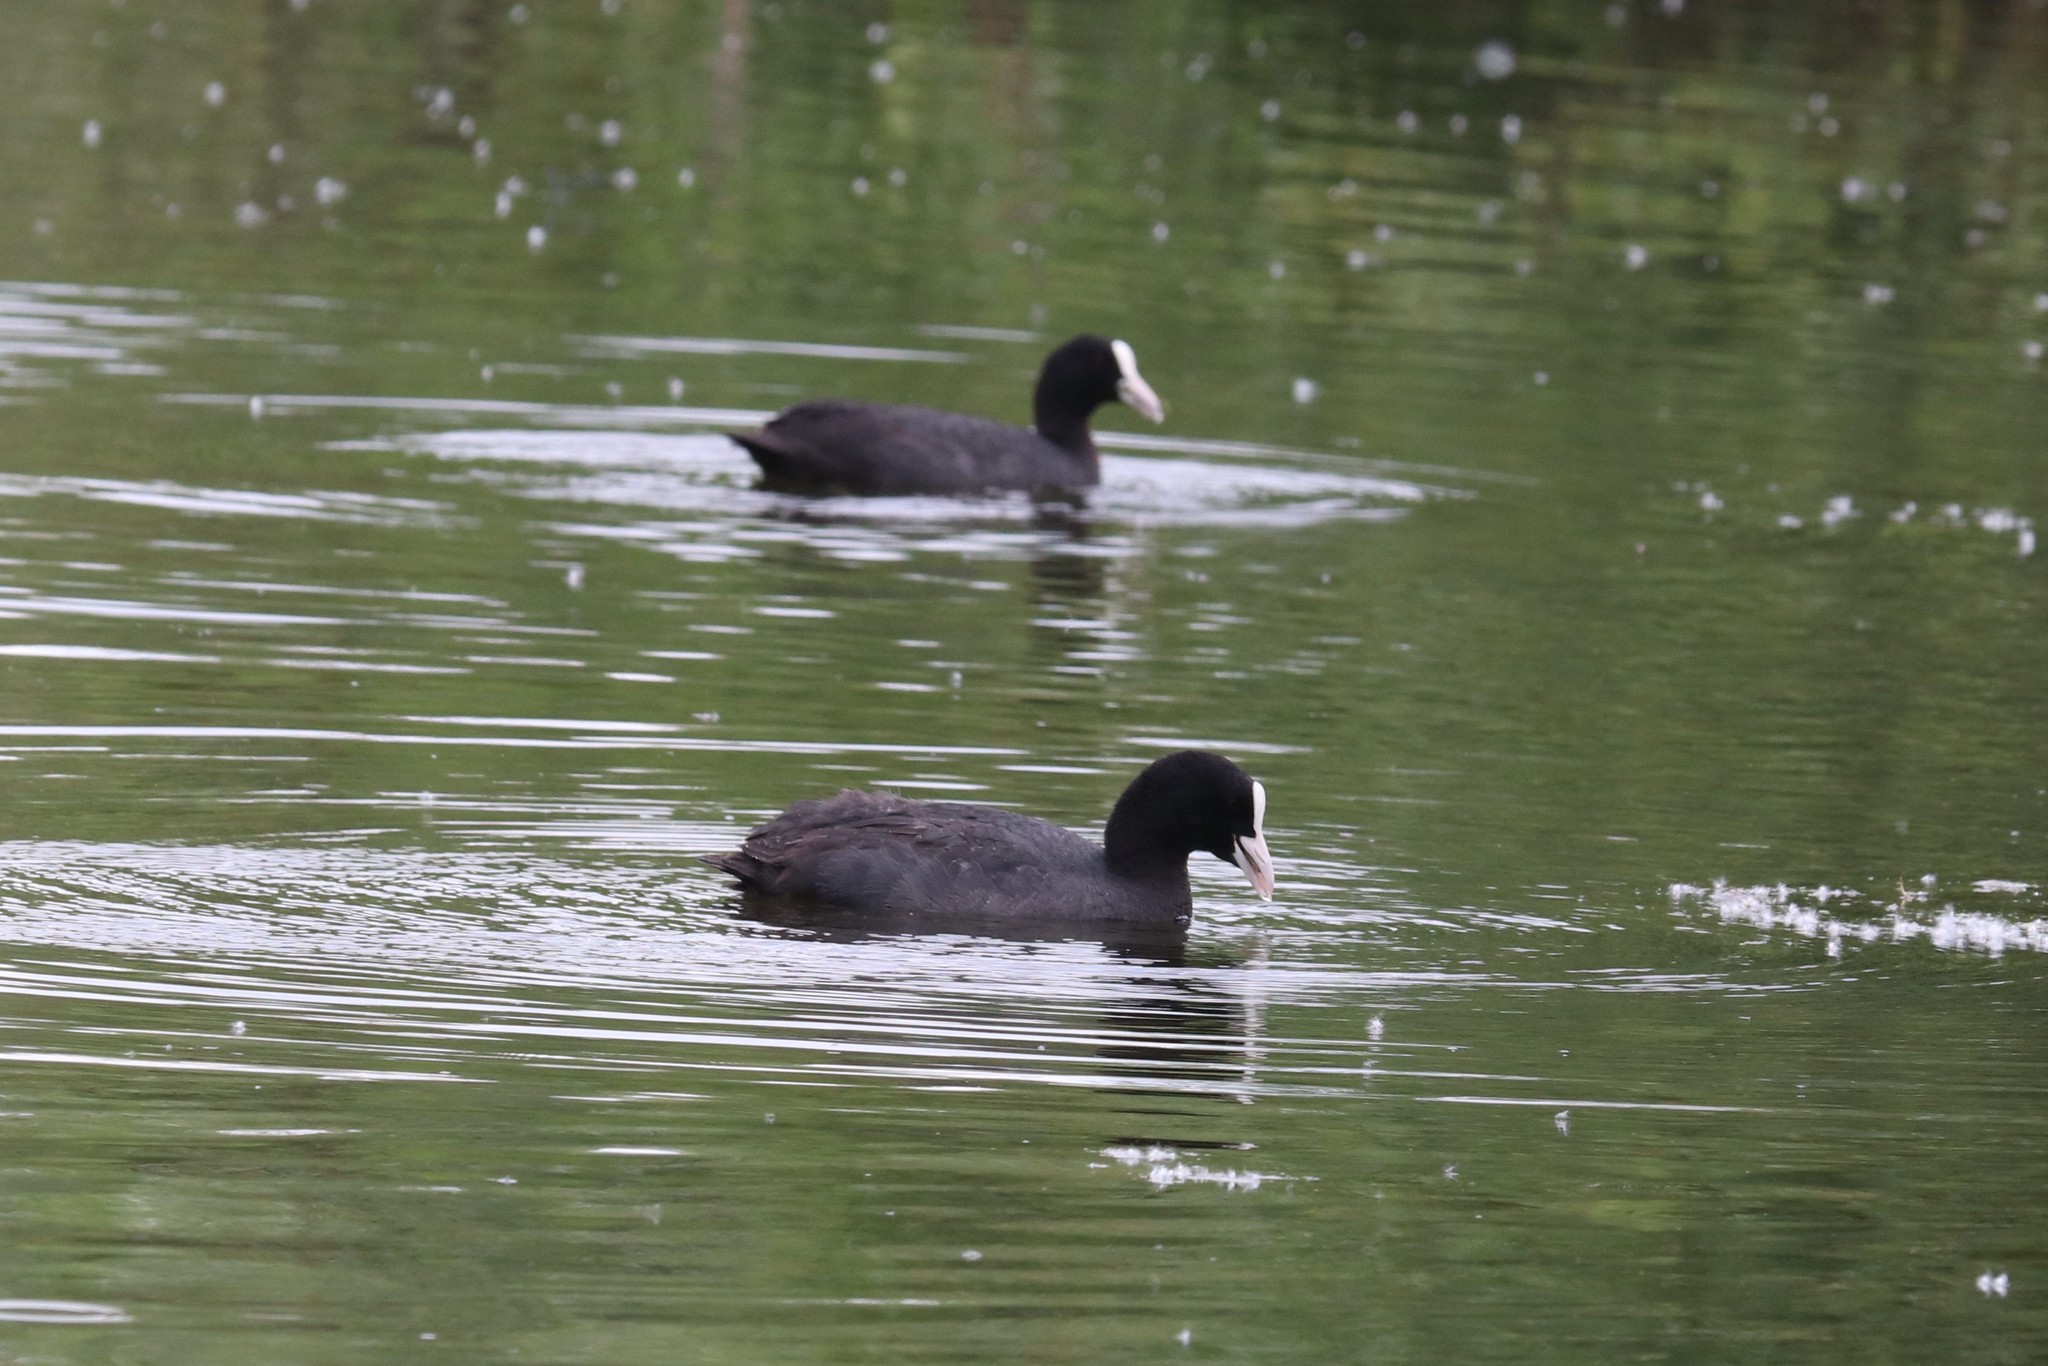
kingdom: Animalia
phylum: Chordata
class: Aves
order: Gruiformes
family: Rallidae
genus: Fulica
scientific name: Fulica atra
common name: Eurasian coot
